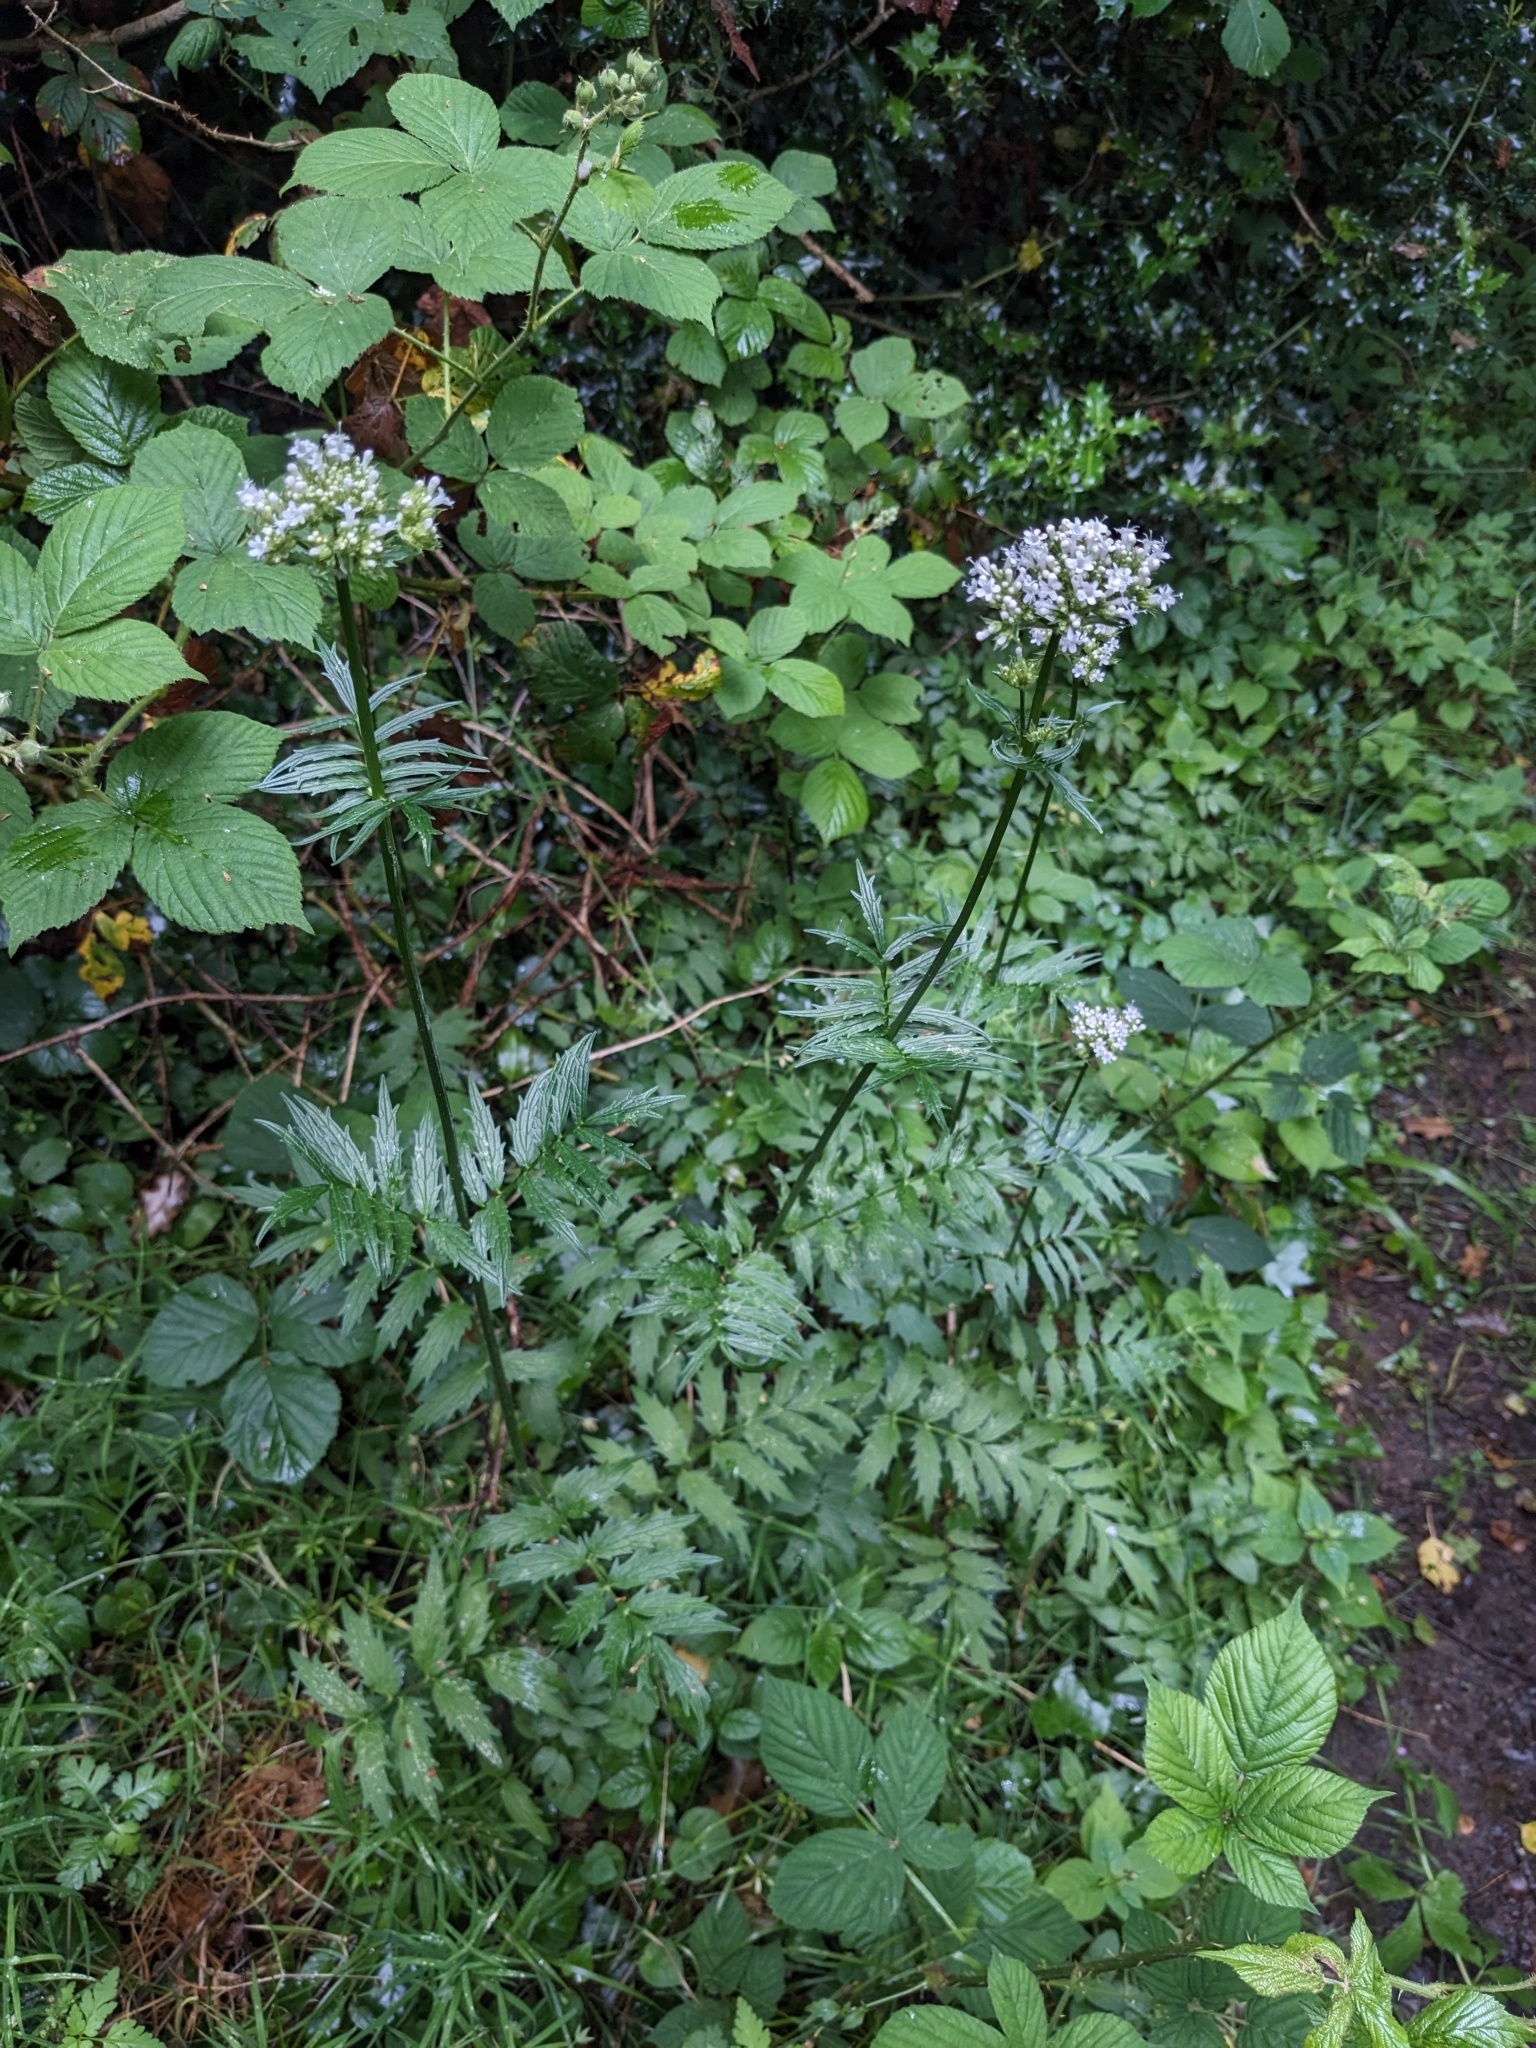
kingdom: Plantae
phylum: Tracheophyta
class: Magnoliopsida
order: Dipsacales
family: Caprifoliaceae
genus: Valeriana
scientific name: Valeriana officinalis
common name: Common valerian
